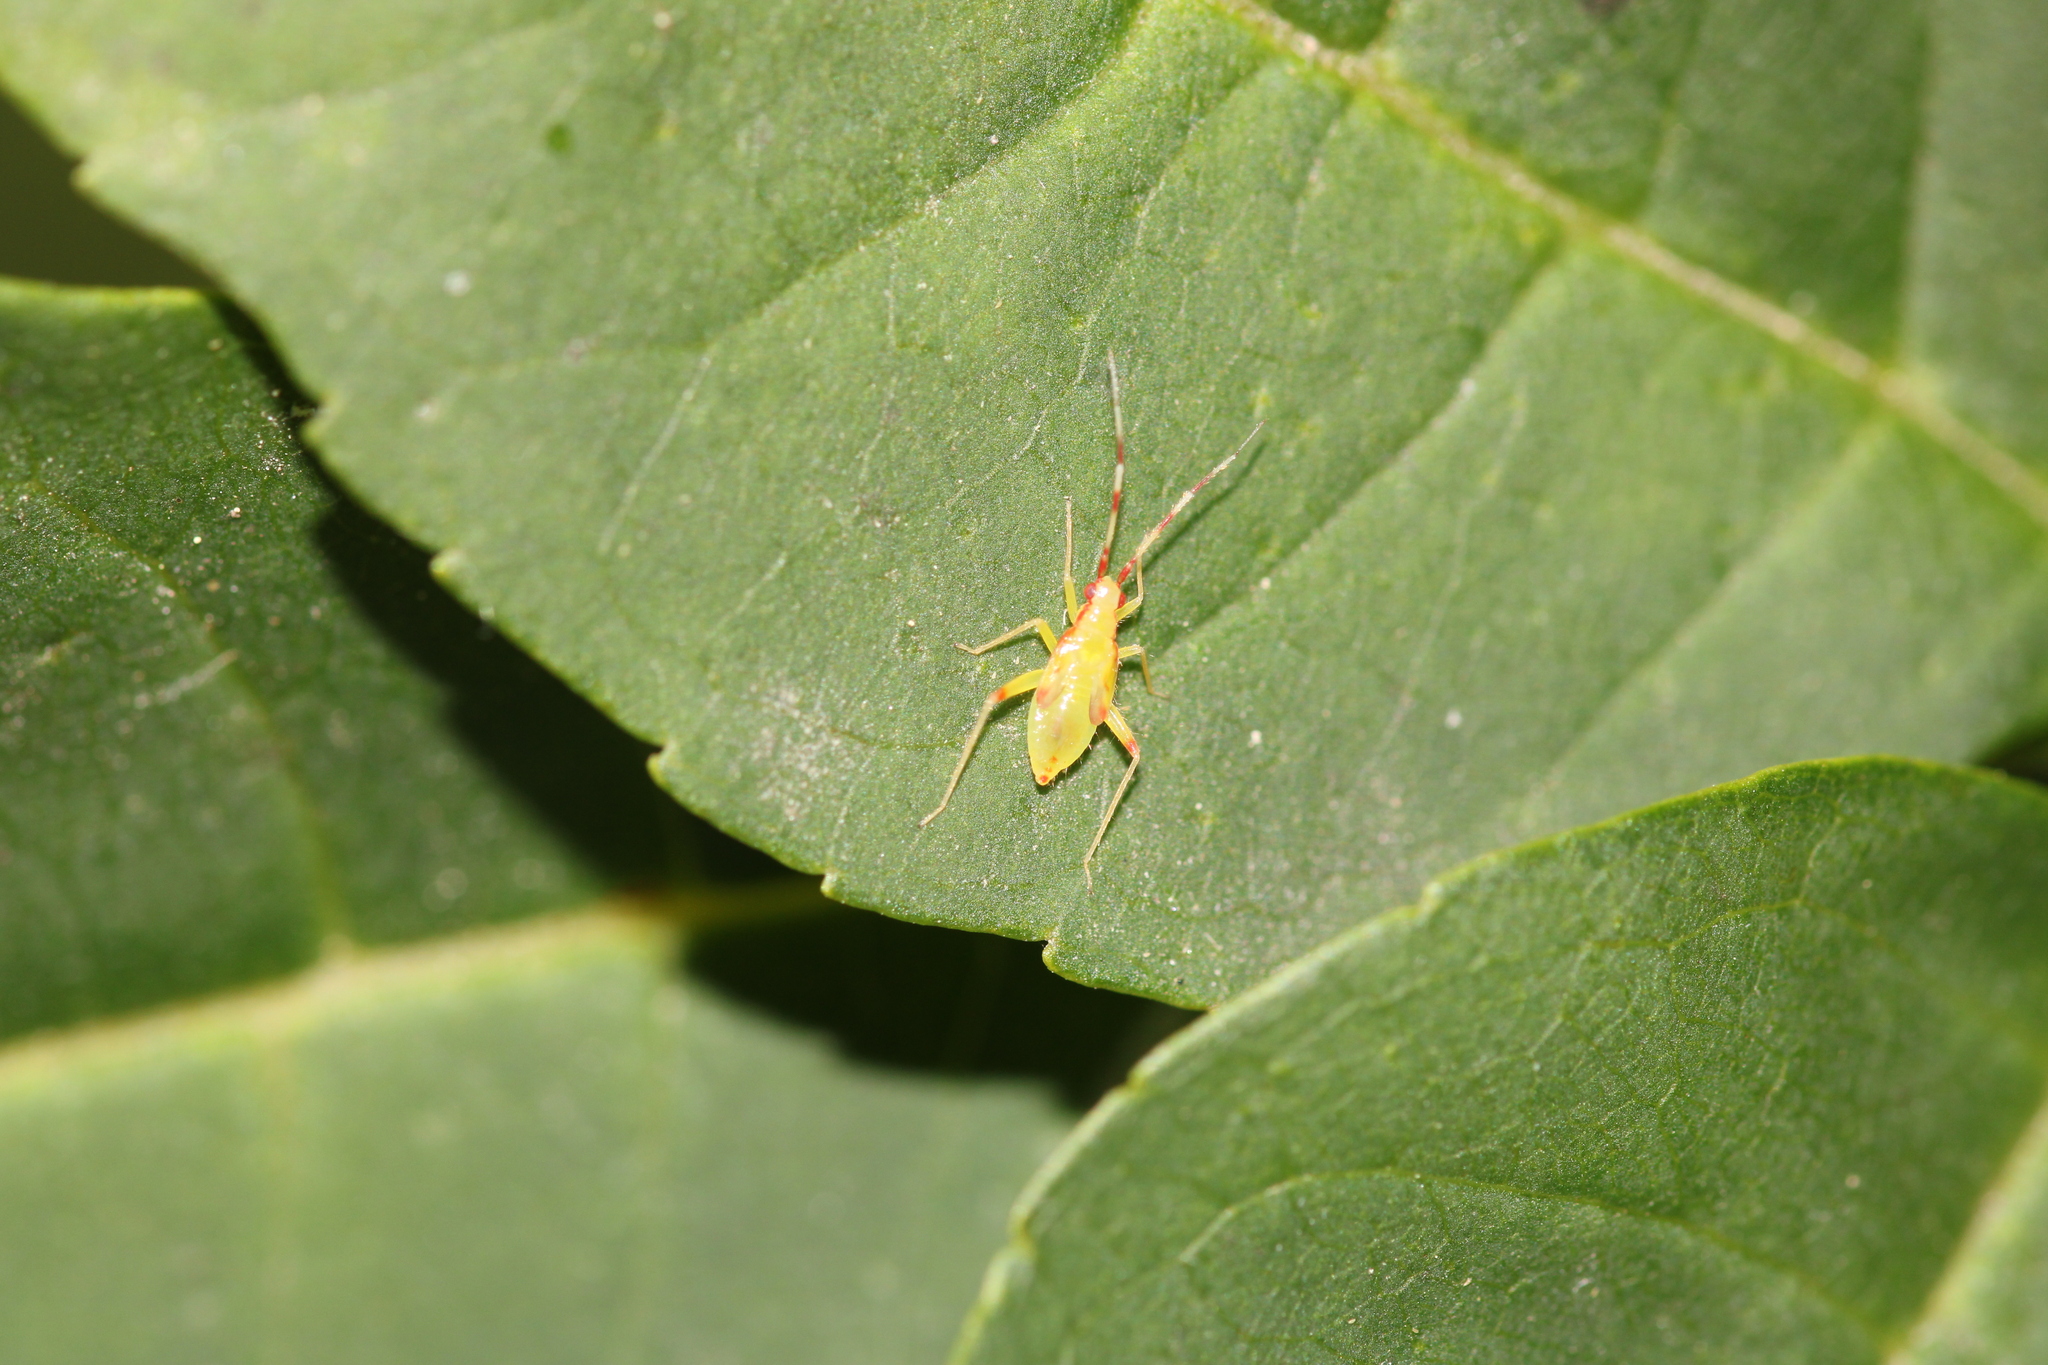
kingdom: Animalia
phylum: Arthropoda
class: Insecta
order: Hemiptera
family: Miridae
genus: Campyloneura
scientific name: Campyloneura virgula
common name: Predatory bug
